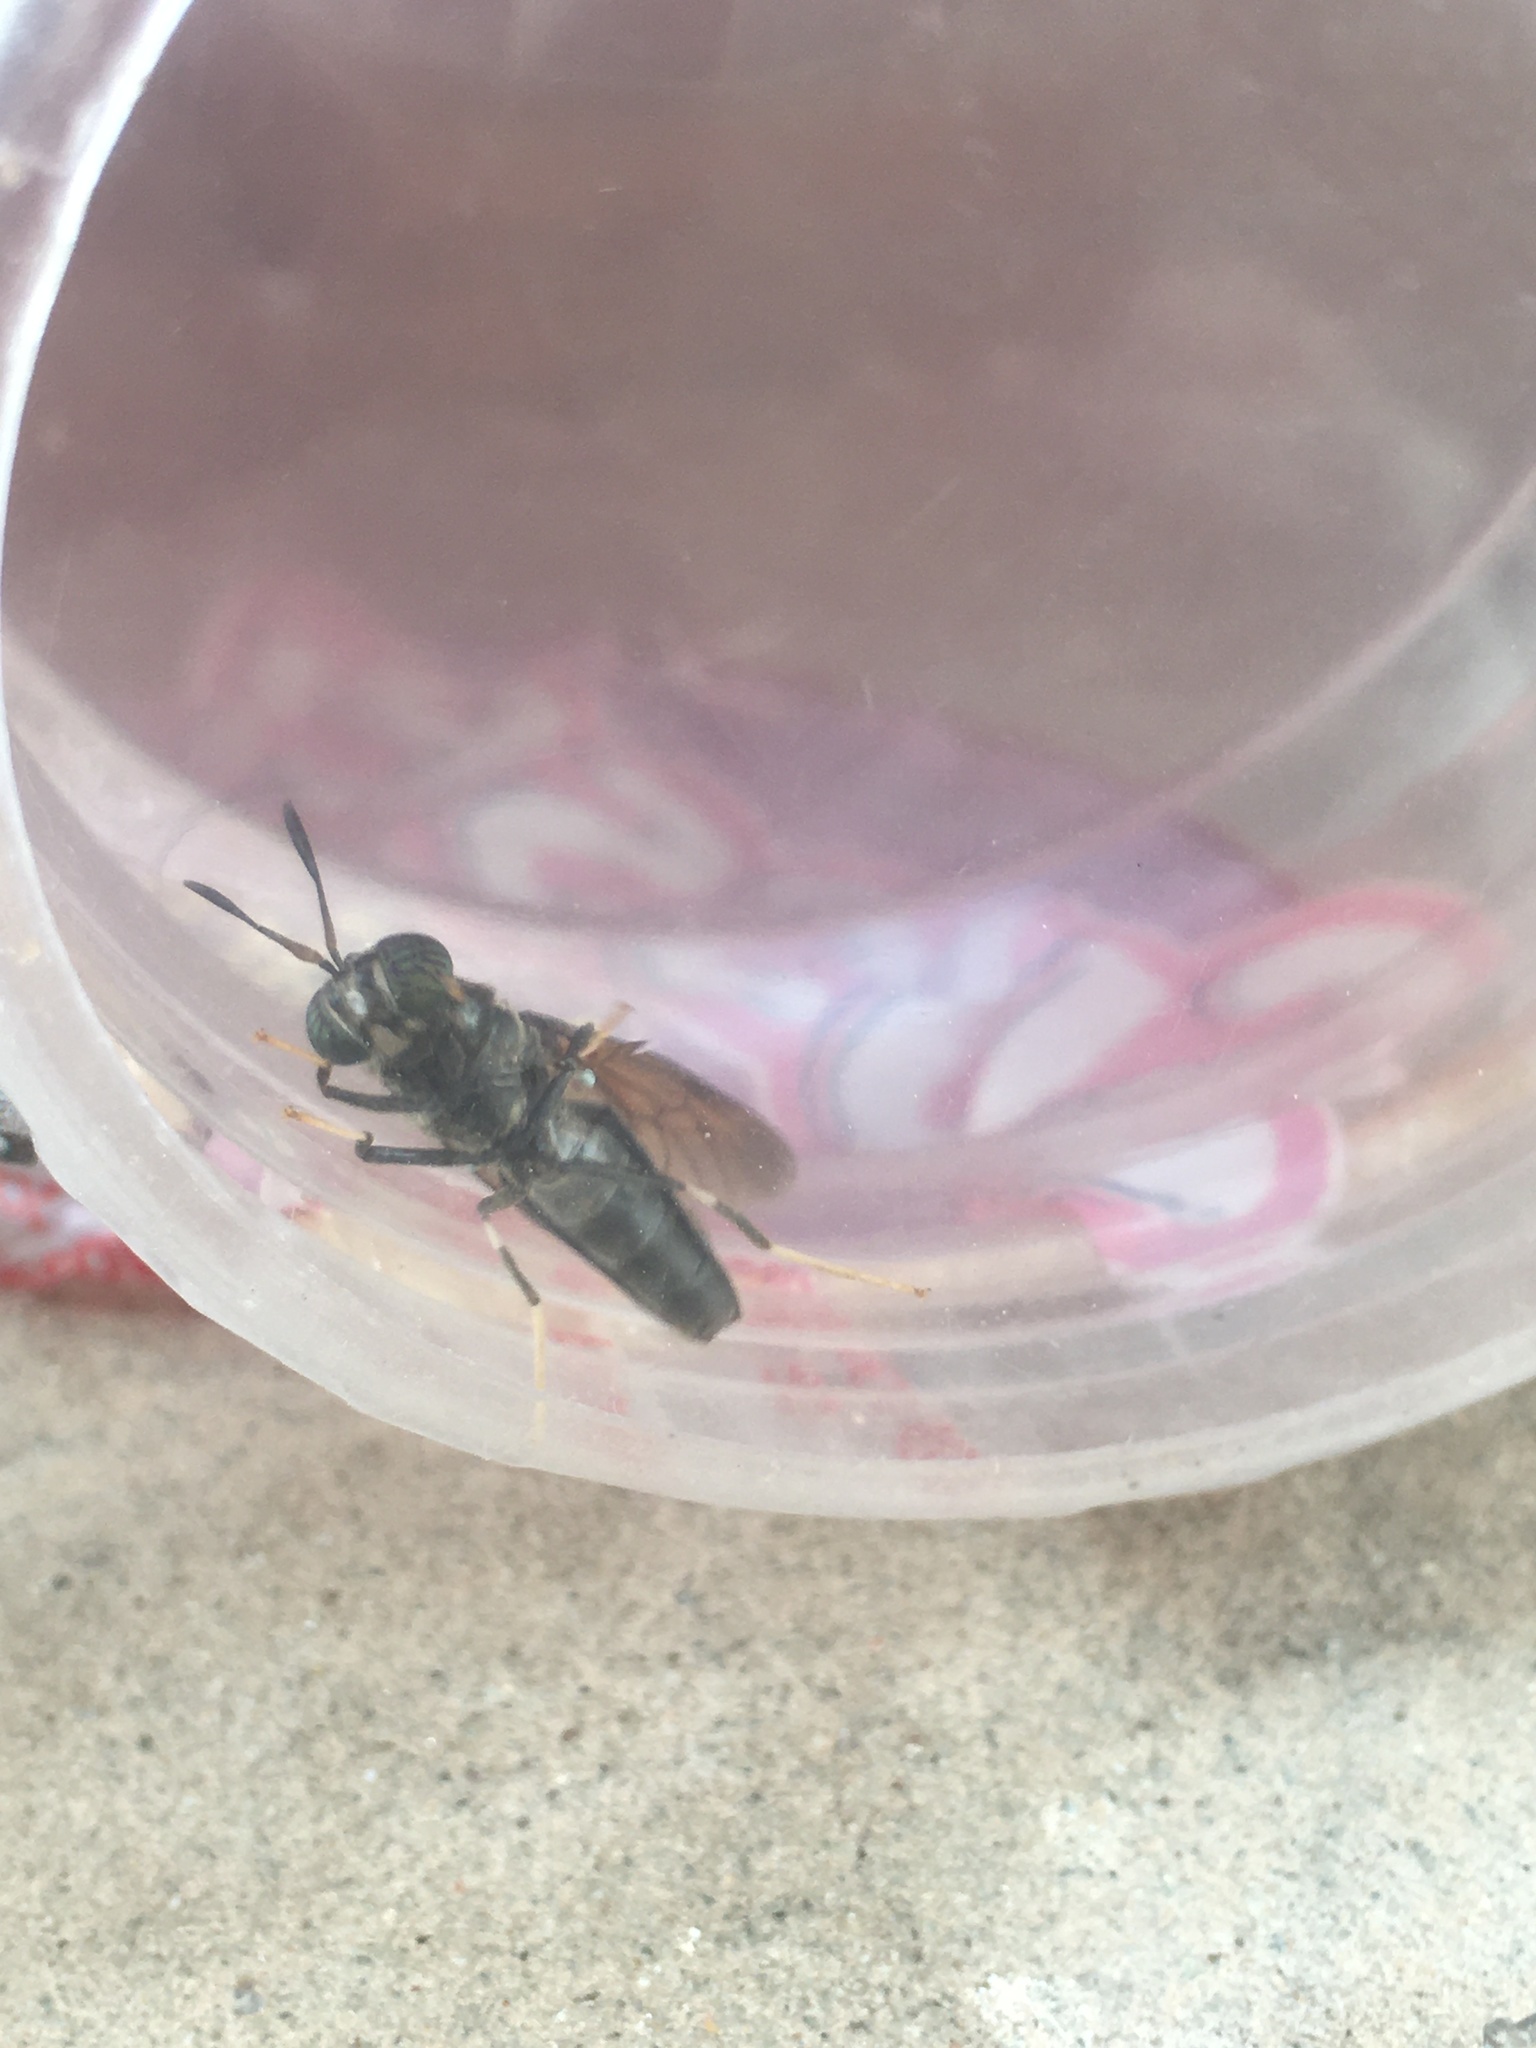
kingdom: Animalia
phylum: Arthropoda
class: Insecta
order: Diptera
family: Stratiomyidae
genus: Hermetia
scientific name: Hermetia illucens
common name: Black soldier fly
